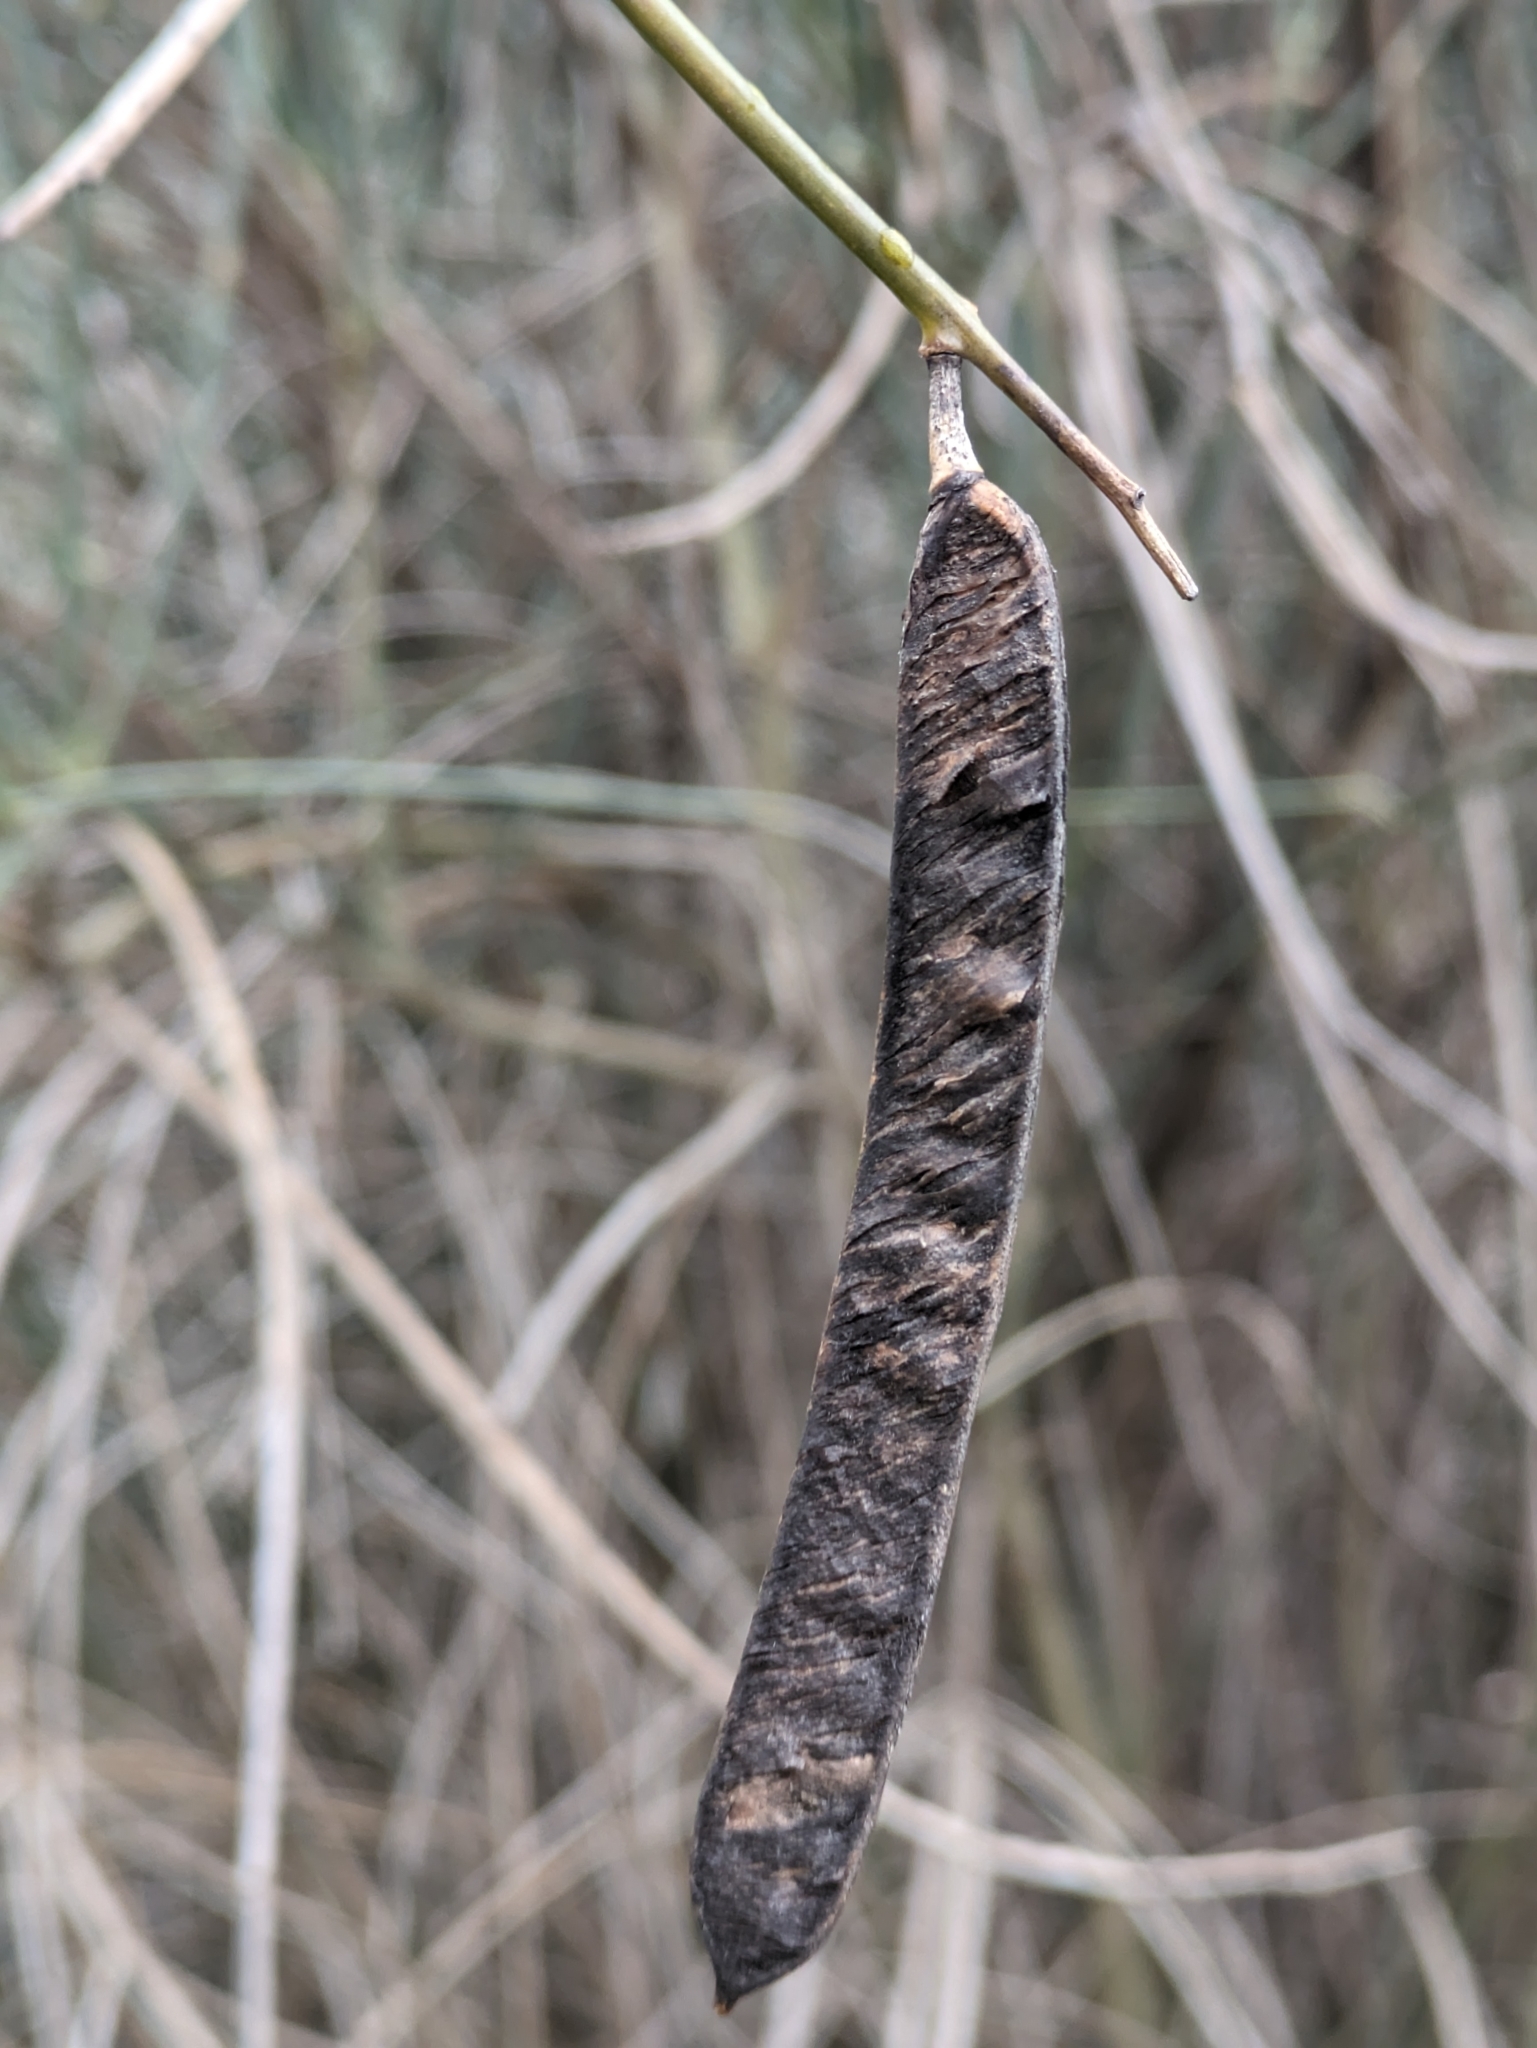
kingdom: Plantae
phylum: Tracheophyta
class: Magnoliopsida
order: Fabales
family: Fabaceae
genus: Spartium
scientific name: Spartium junceum
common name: Spanish broom
